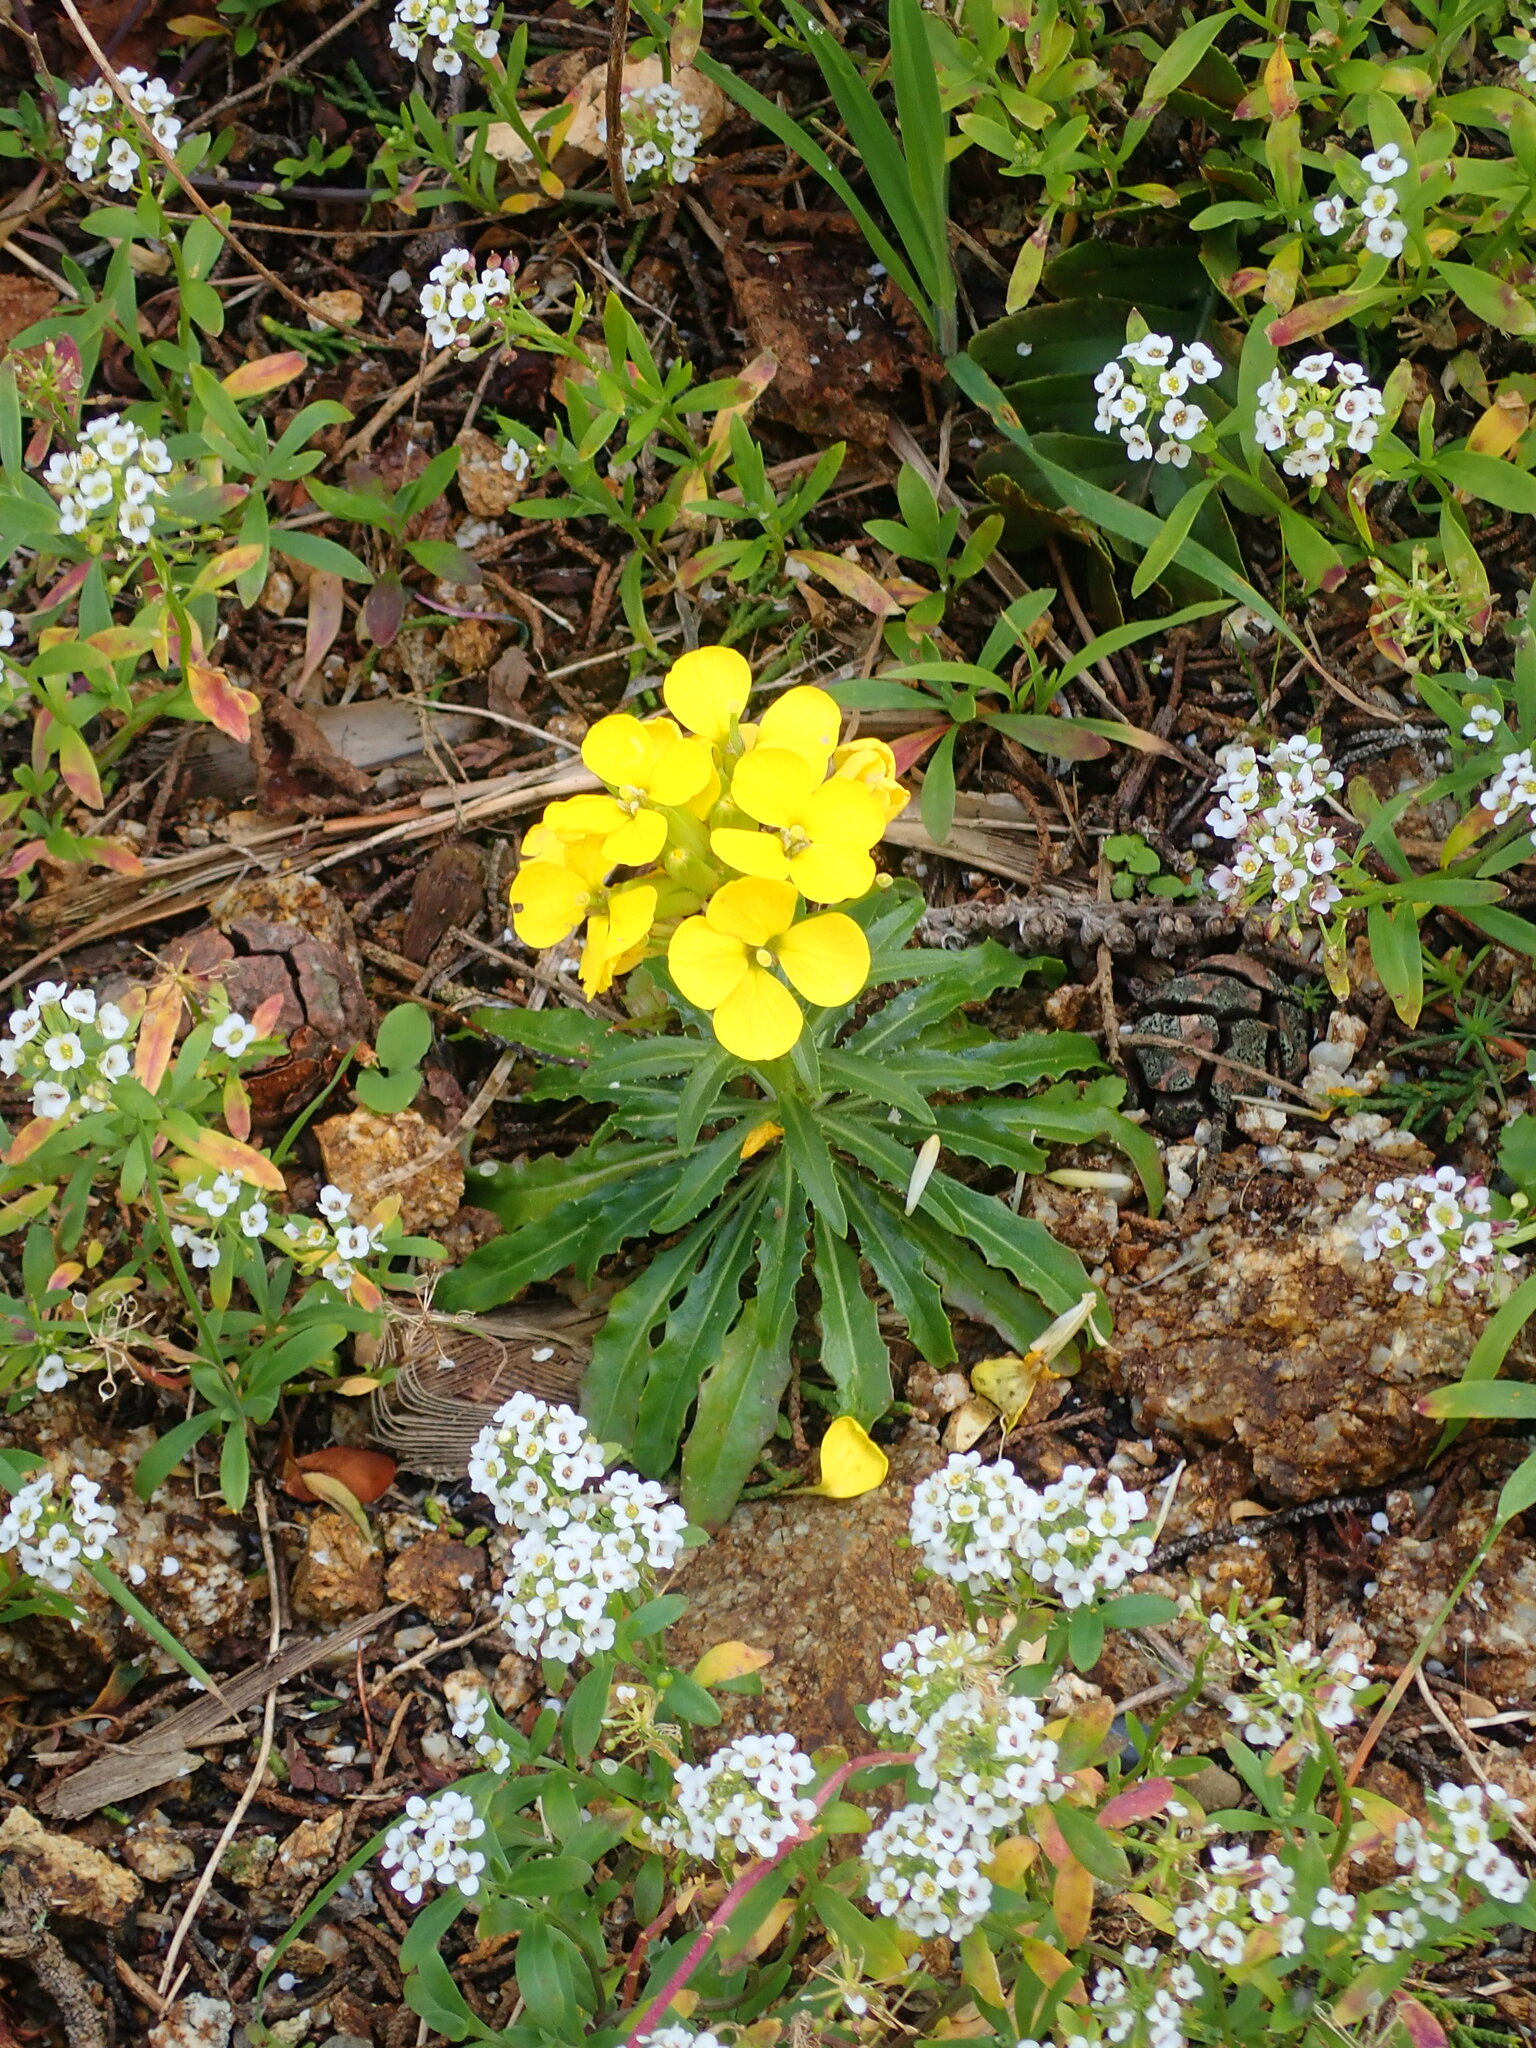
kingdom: Plantae
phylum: Tracheophyta
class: Magnoliopsida
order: Brassicales
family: Brassicaceae
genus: Erysimum
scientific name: Erysimum franciscanum
